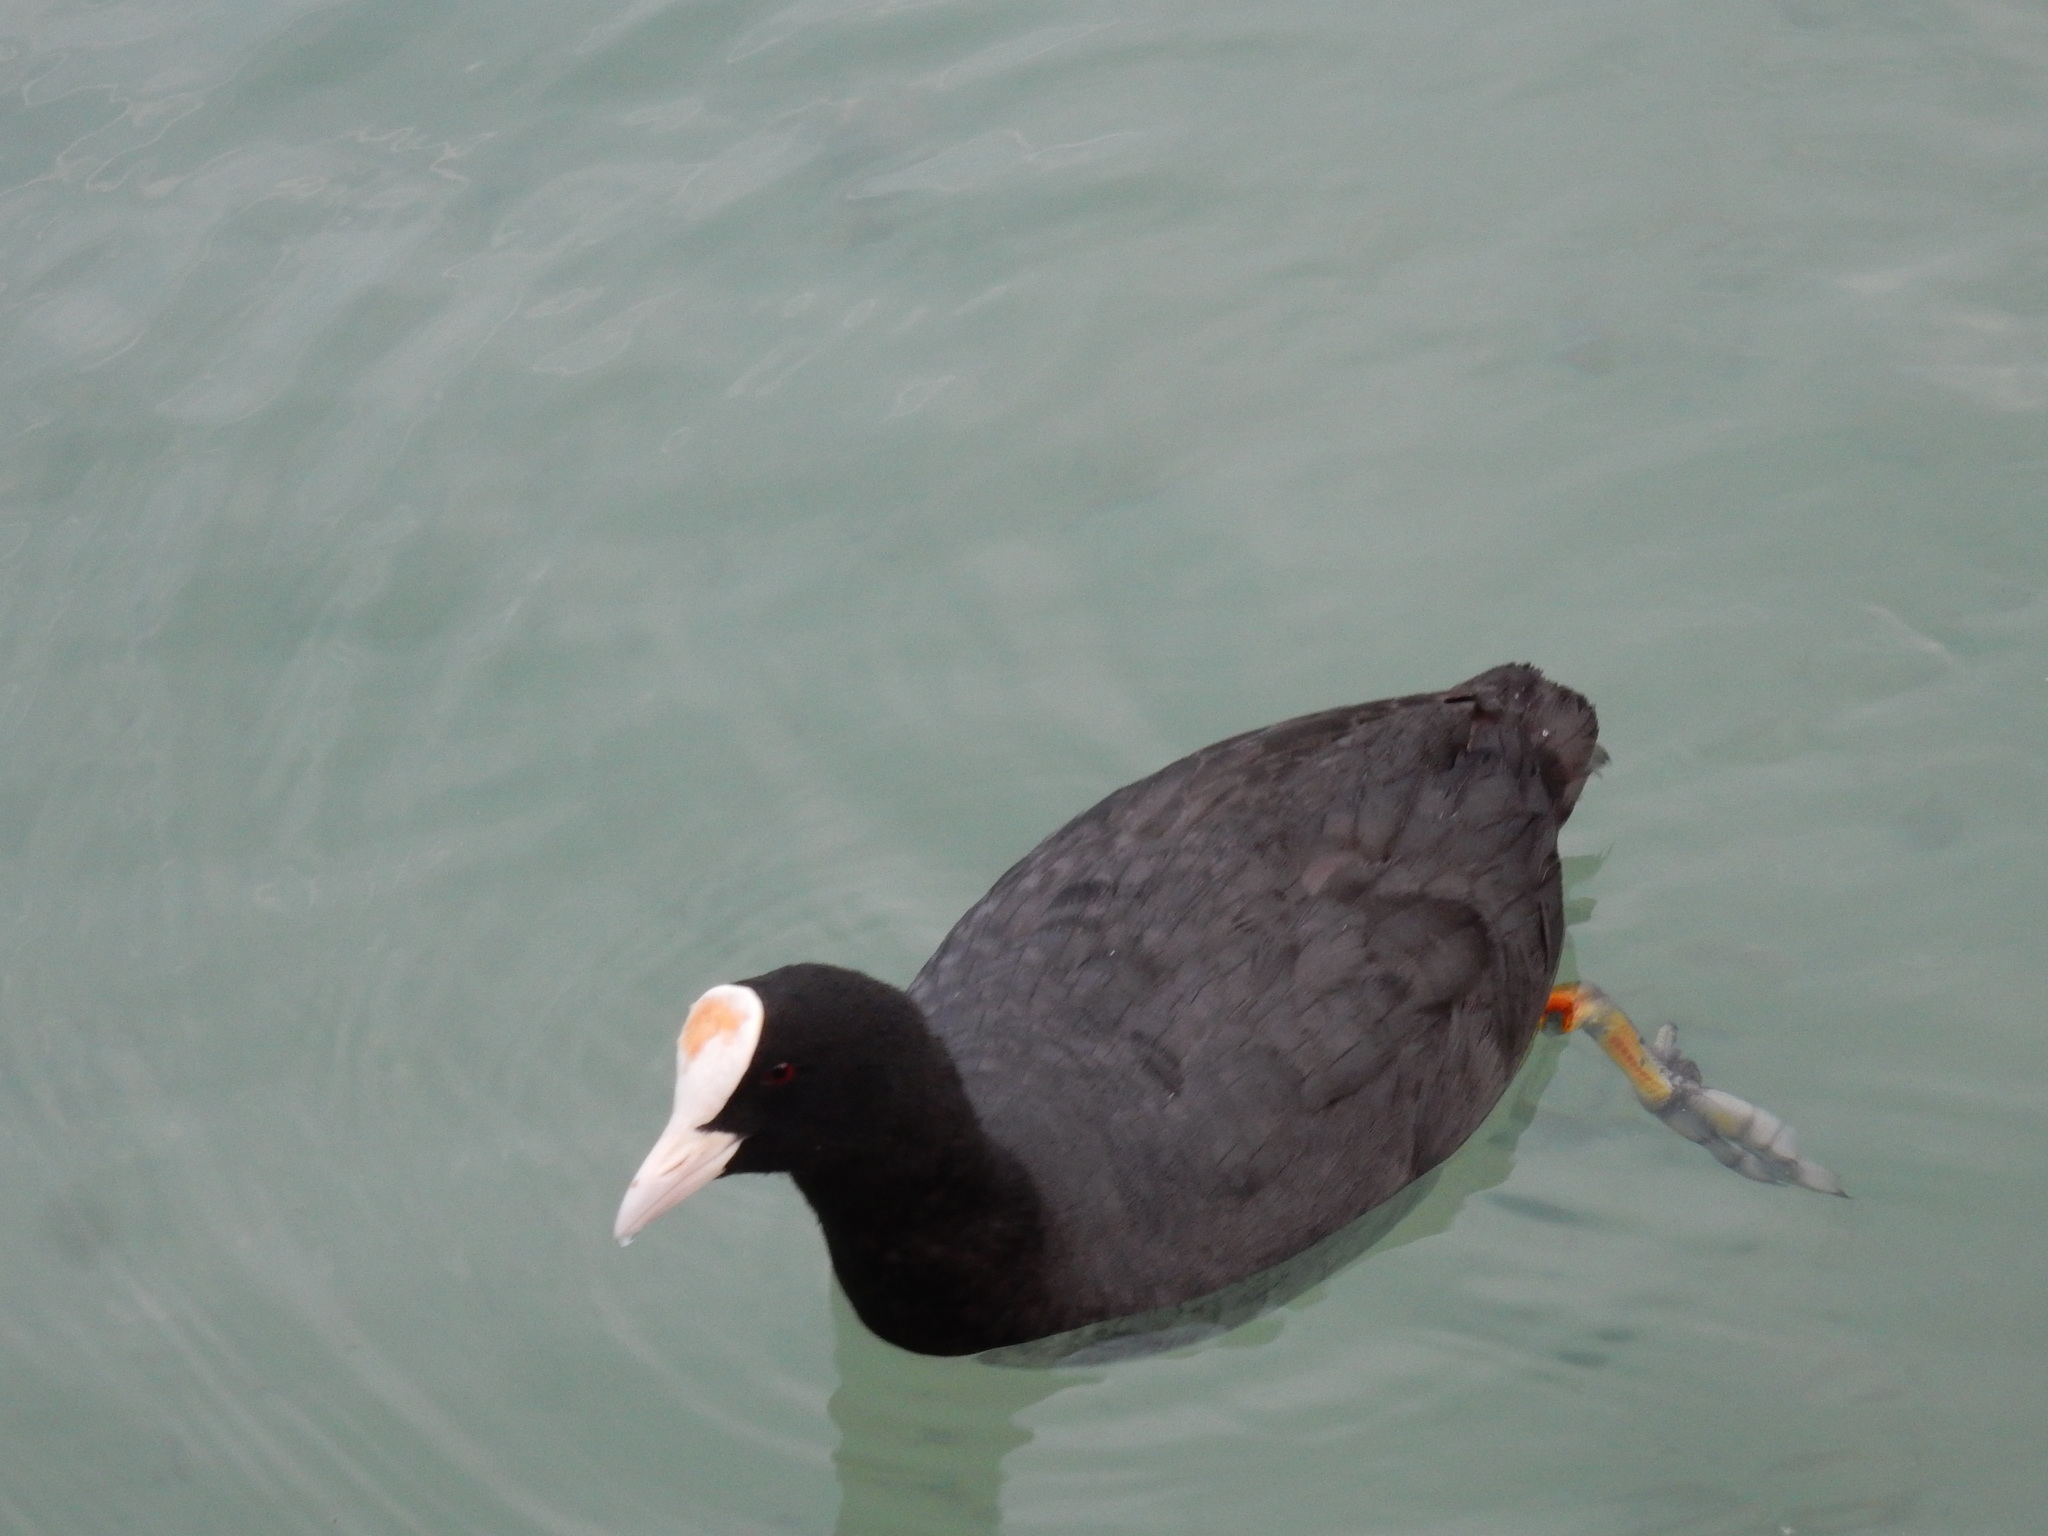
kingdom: Animalia
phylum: Chordata
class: Aves
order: Gruiformes
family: Rallidae
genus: Fulica
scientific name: Fulica atra
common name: Eurasian coot
